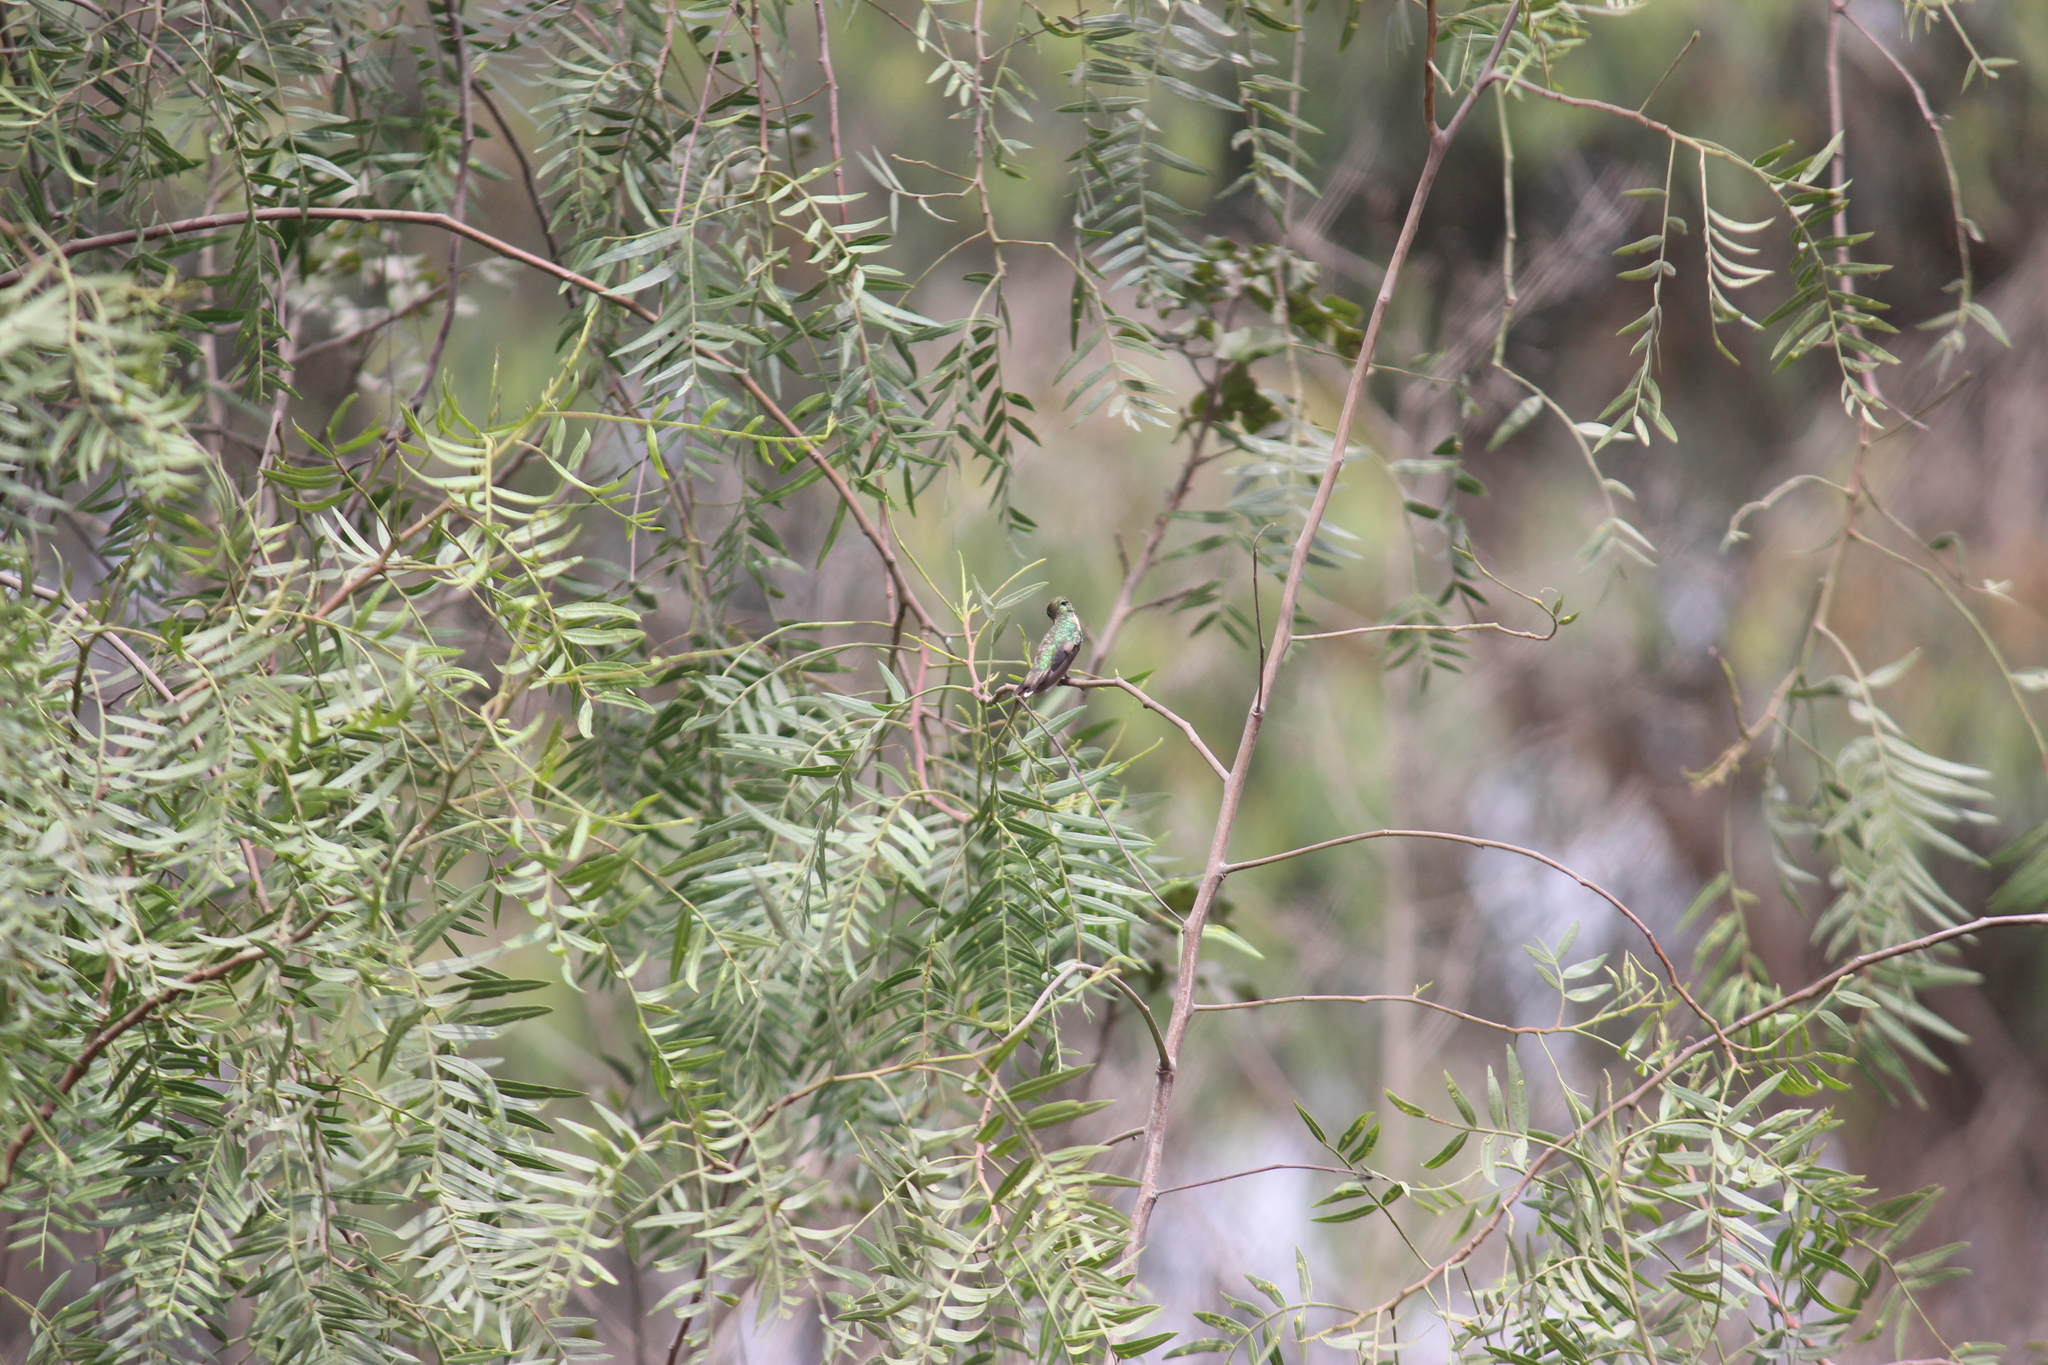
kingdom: Animalia
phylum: Chordata
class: Aves
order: Apodiformes
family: Trochilidae
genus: Myrtis
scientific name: Myrtis fanny
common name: Purple-collared woodstar
